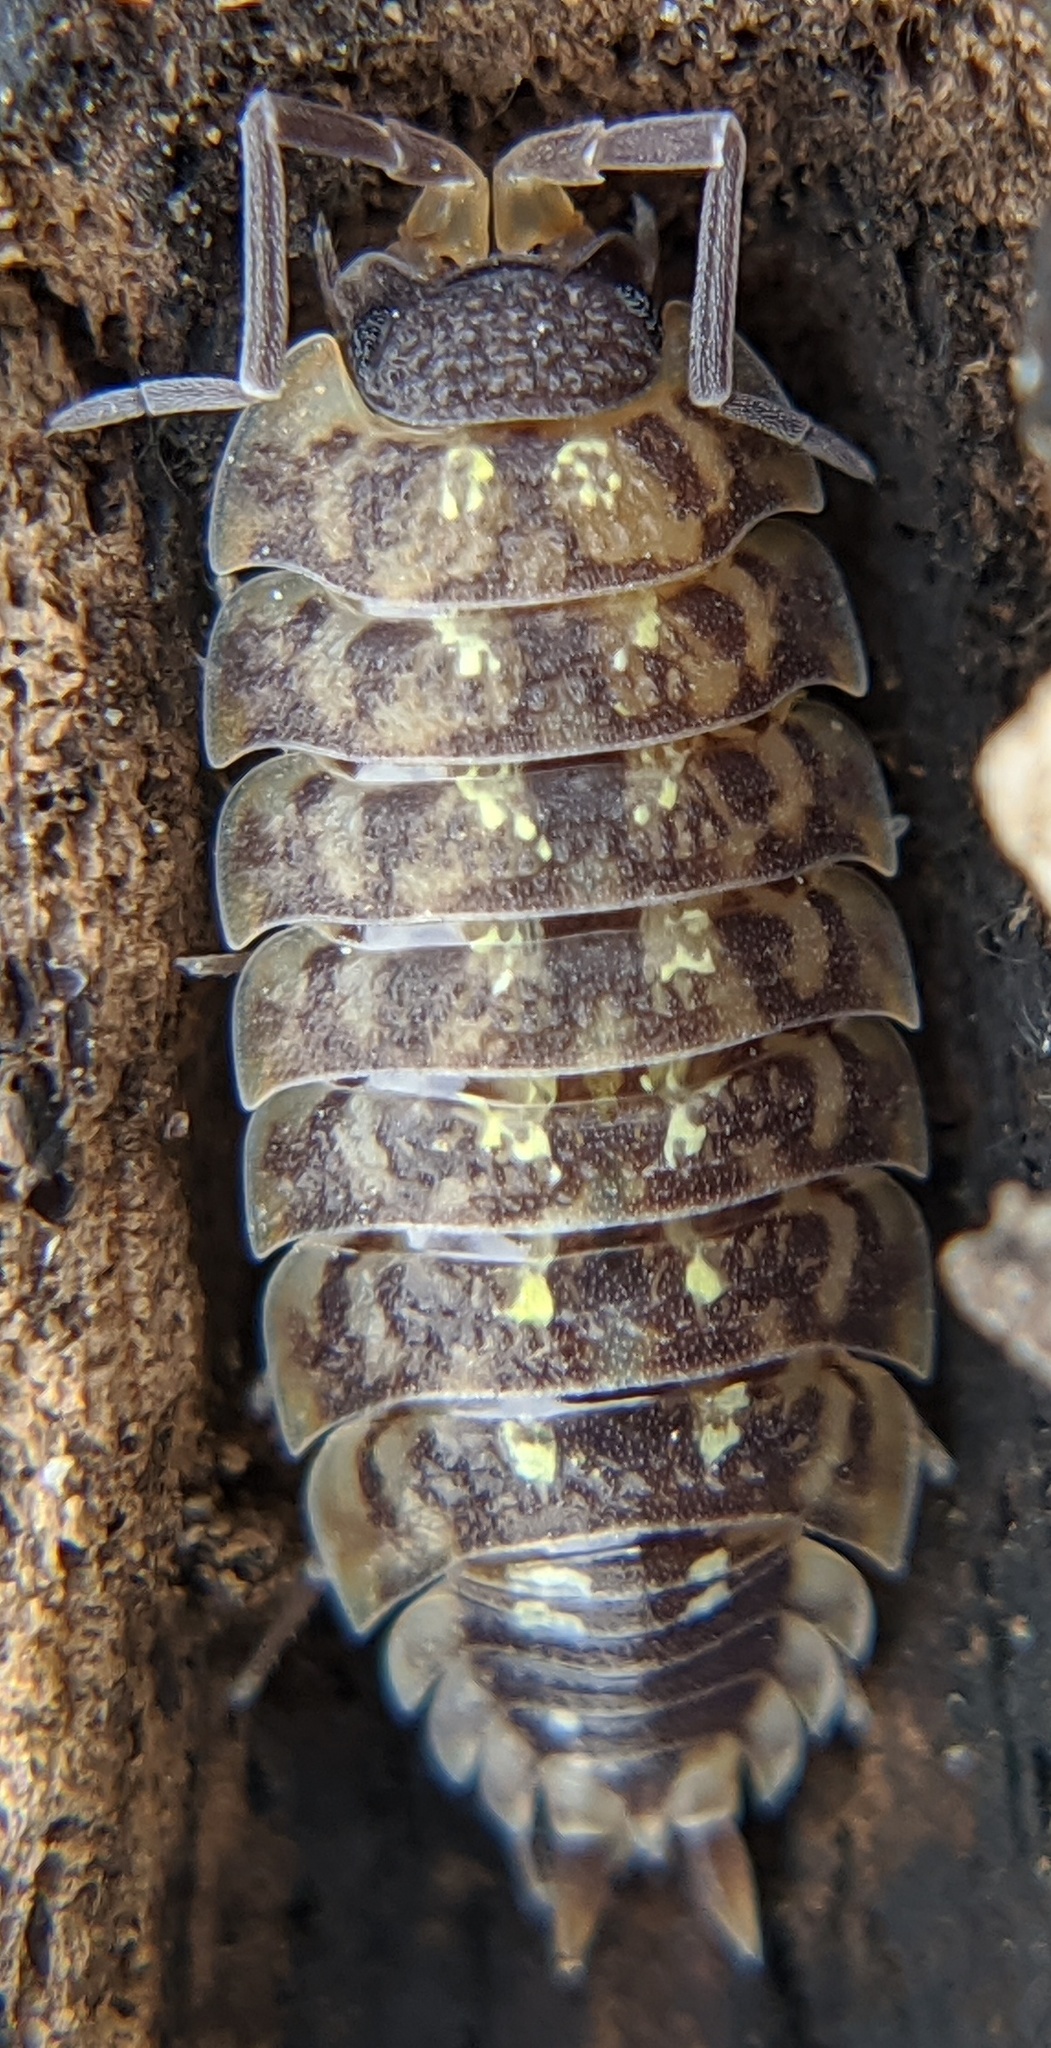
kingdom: Animalia
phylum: Arthropoda
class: Malacostraca
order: Isopoda
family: Porcellionidae
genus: Porcellio
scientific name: Porcellio spinicornis
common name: Painted woodlouse
